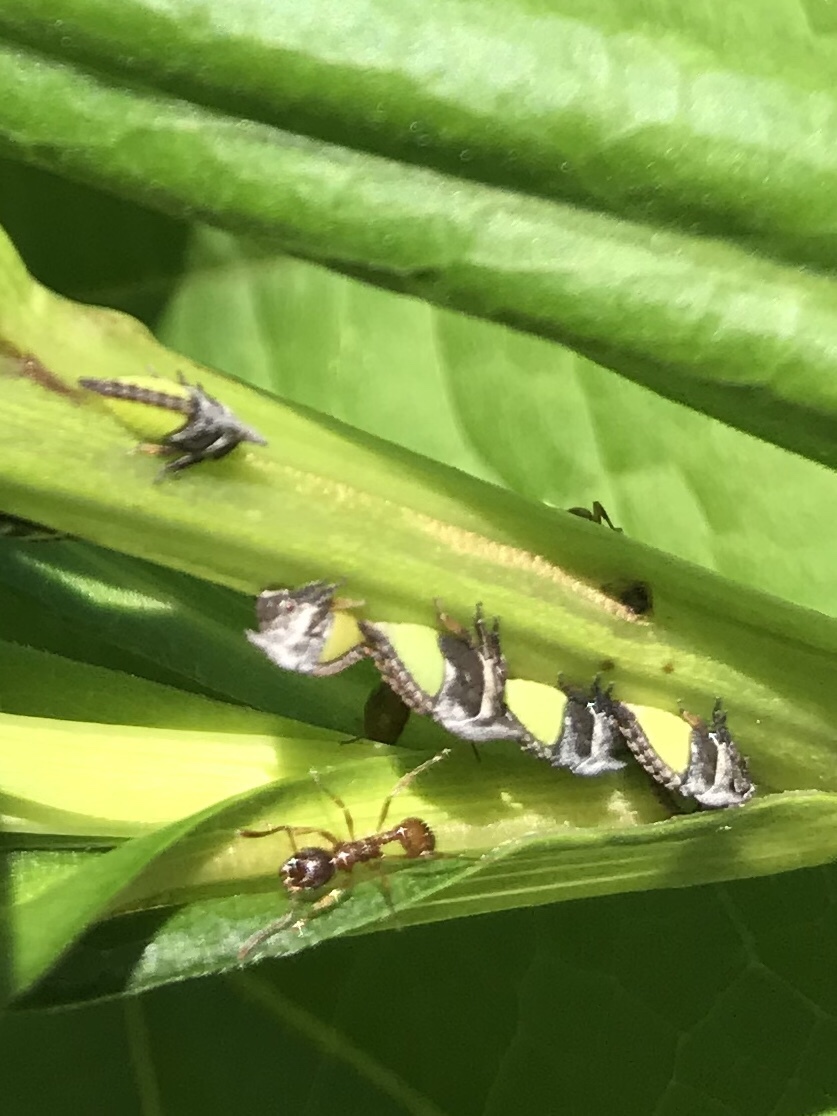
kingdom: Animalia
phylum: Arthropoda
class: Insecta
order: Hemiptera
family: Membracidae
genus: Enchenopa
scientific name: Enchenopa latipes
